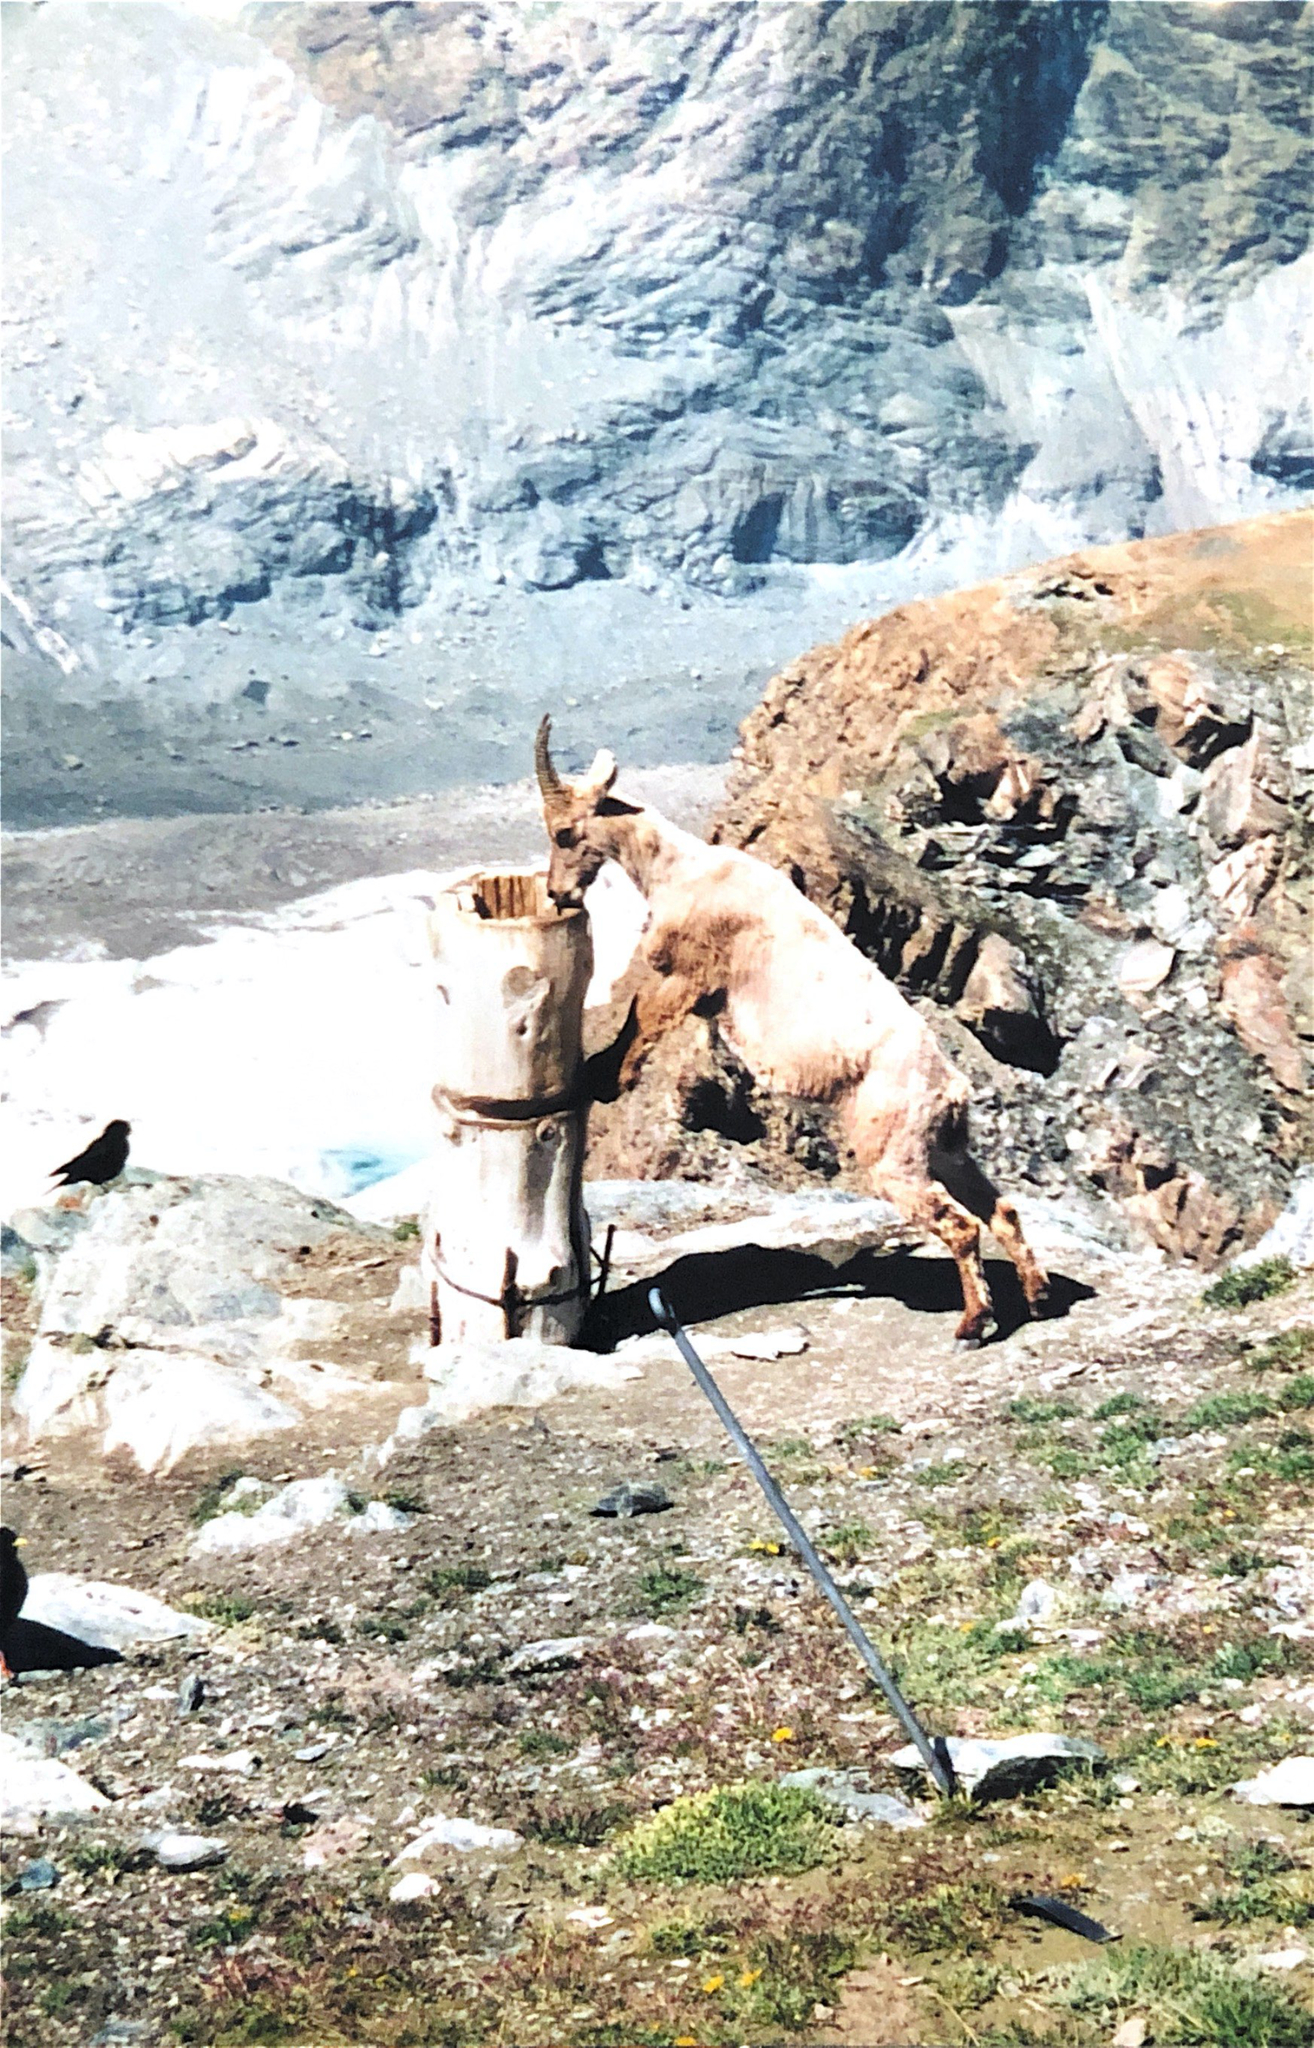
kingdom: Animalia
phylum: Chordata
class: Mammalia
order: Artiodactyla
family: Bovidae
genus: Capra
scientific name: Capra ibex
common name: Alpine ibex
